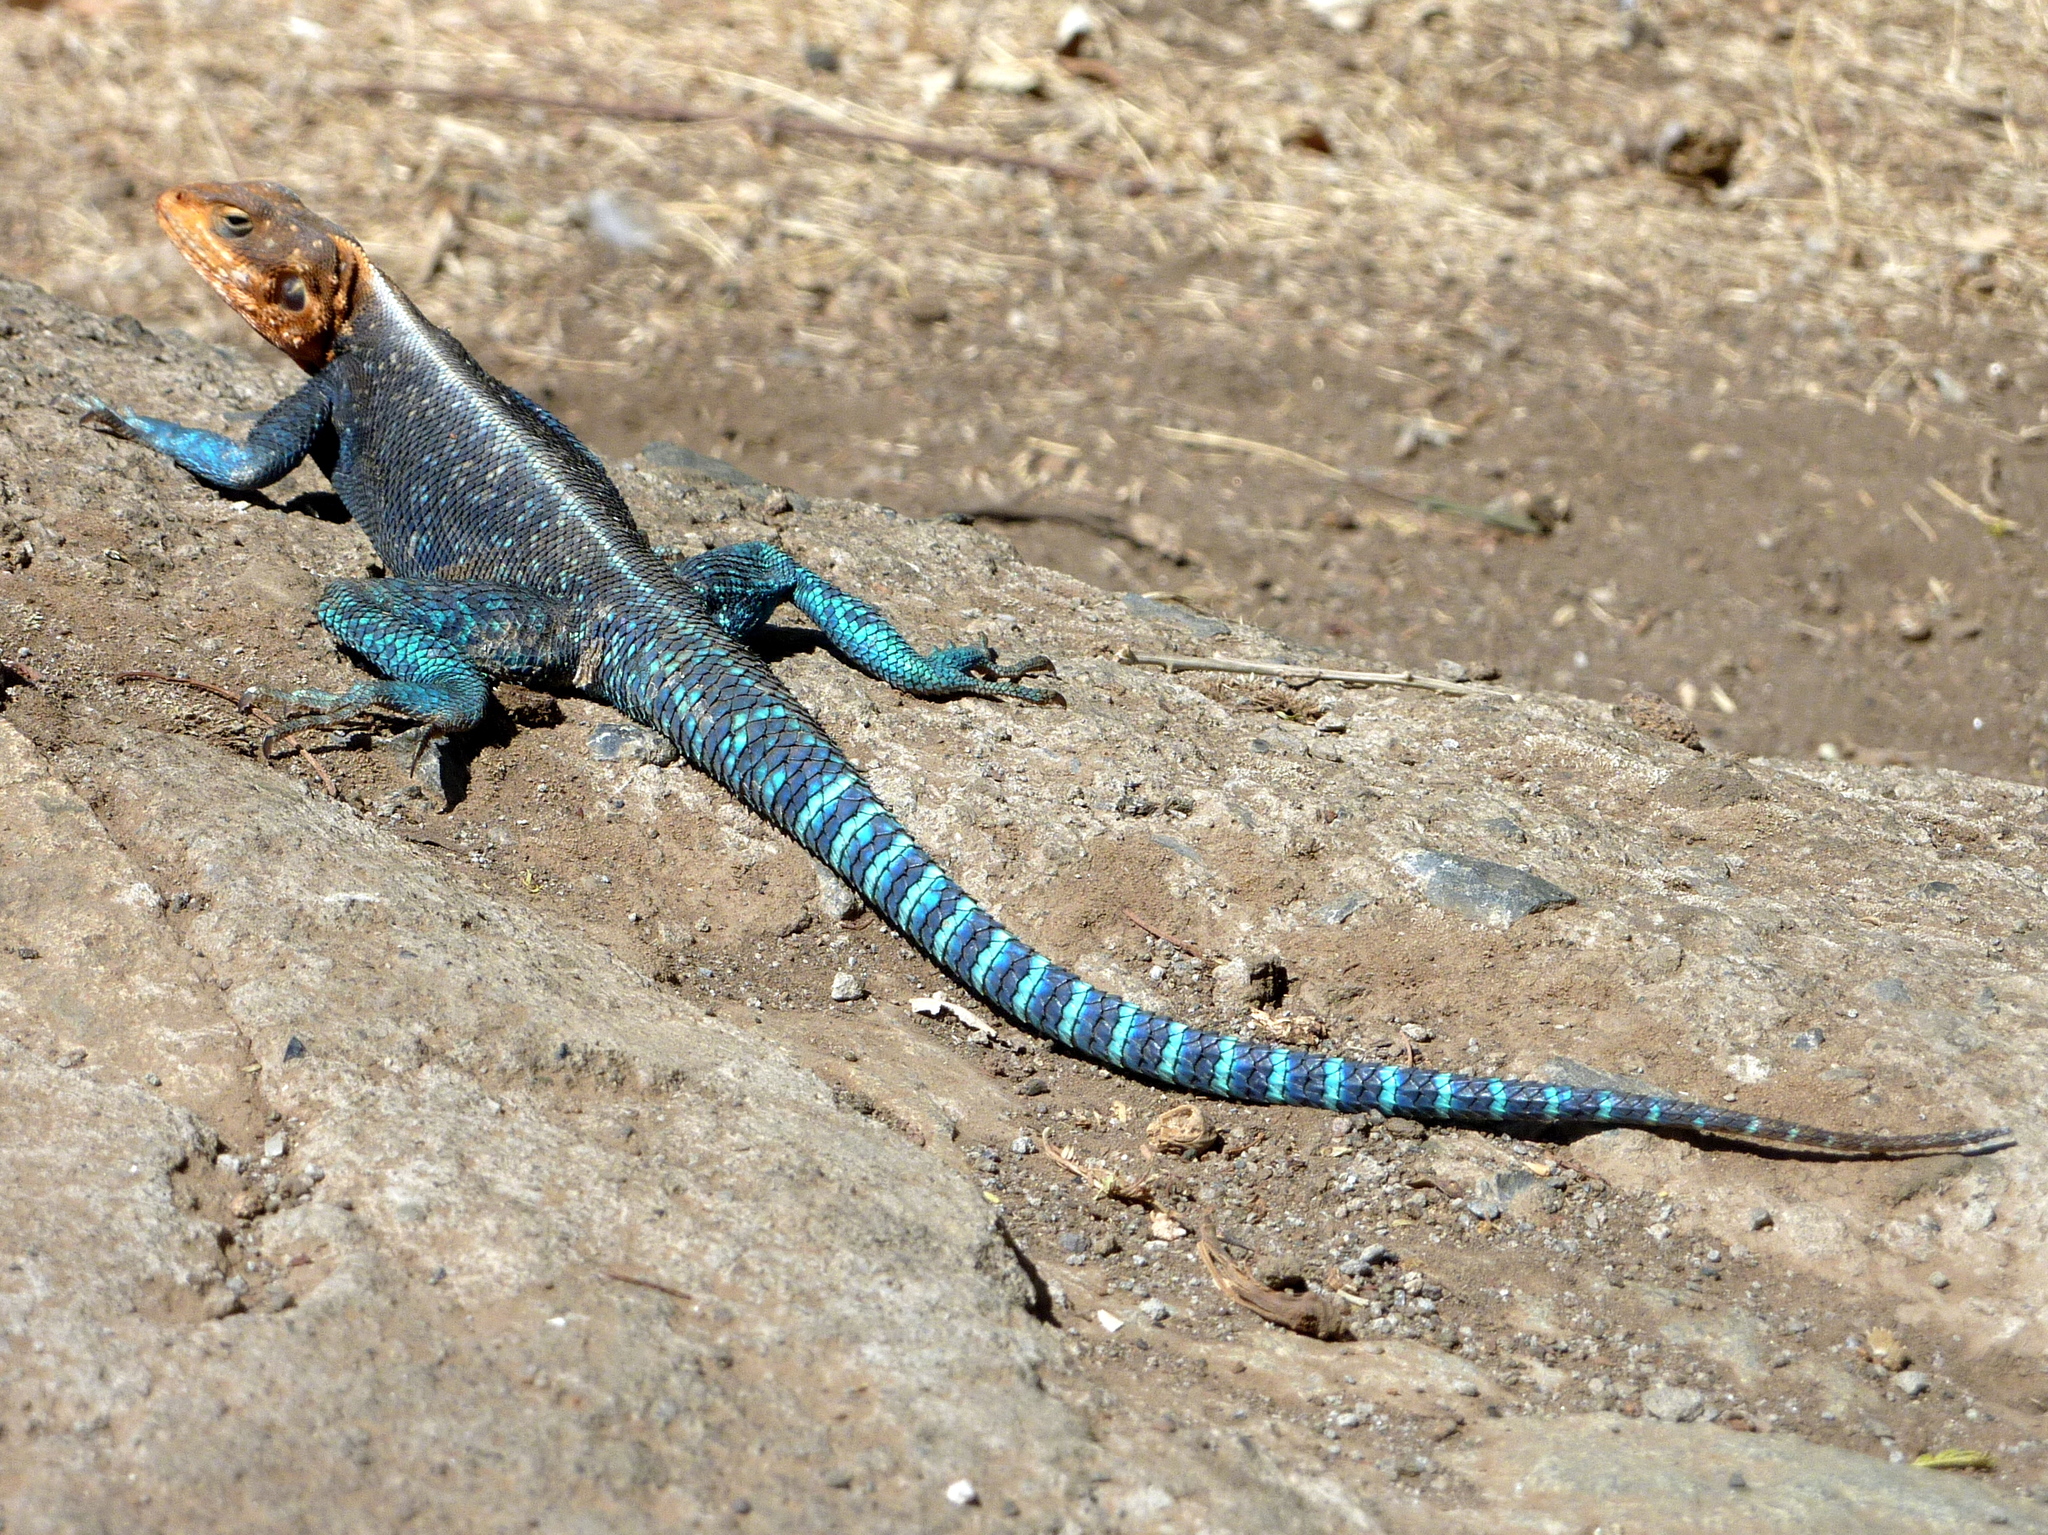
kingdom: Animalia
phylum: Chordata
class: Squamata
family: Agamidae
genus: Agama
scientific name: Agama lionotus
